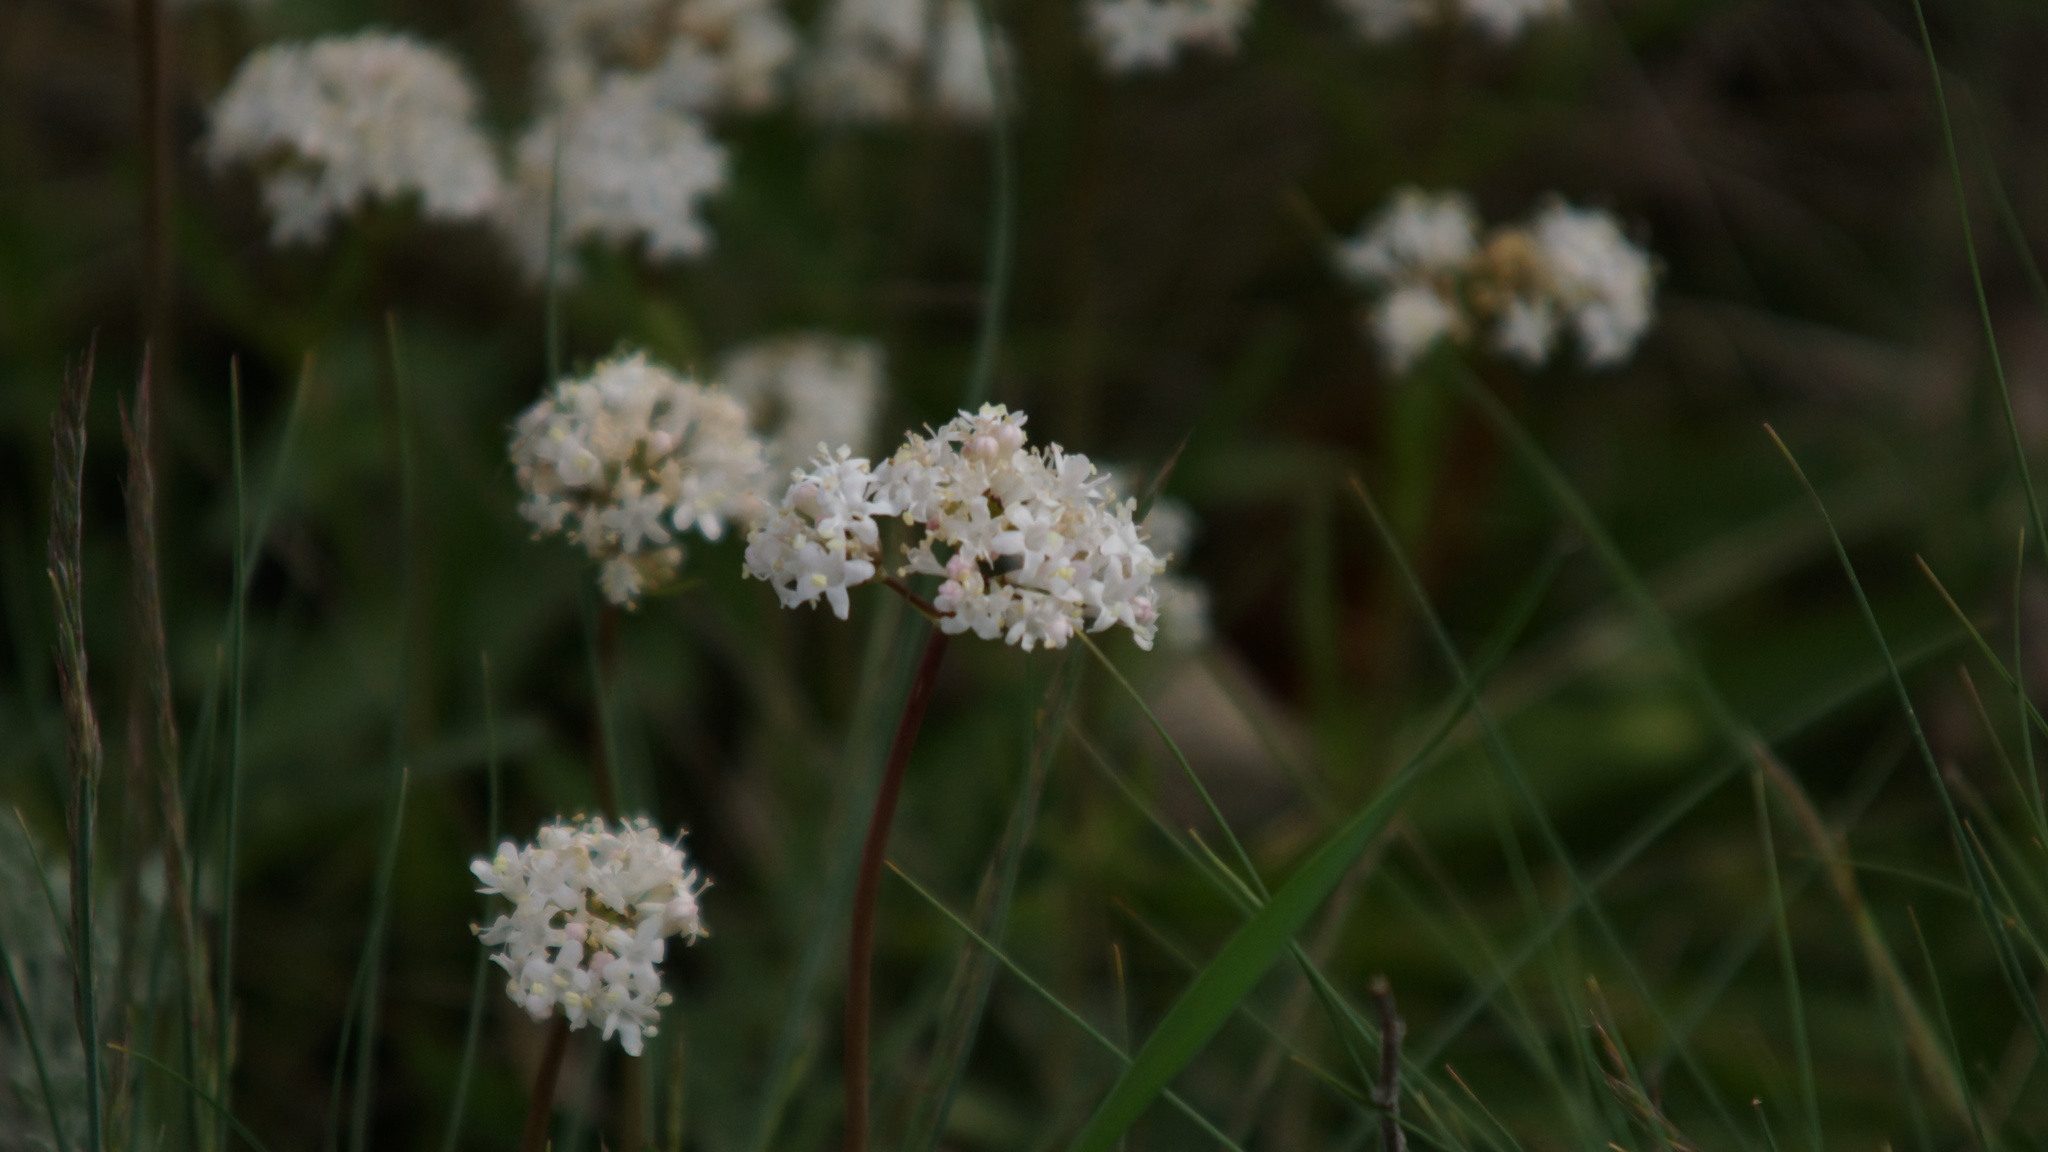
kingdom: Plantae
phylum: Tracheophyta
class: Magnoliopsida
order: Dipsacales
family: Caprifoliaceae
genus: Valeriana
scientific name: Valeriana tuberosa
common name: Tuberous valerian
